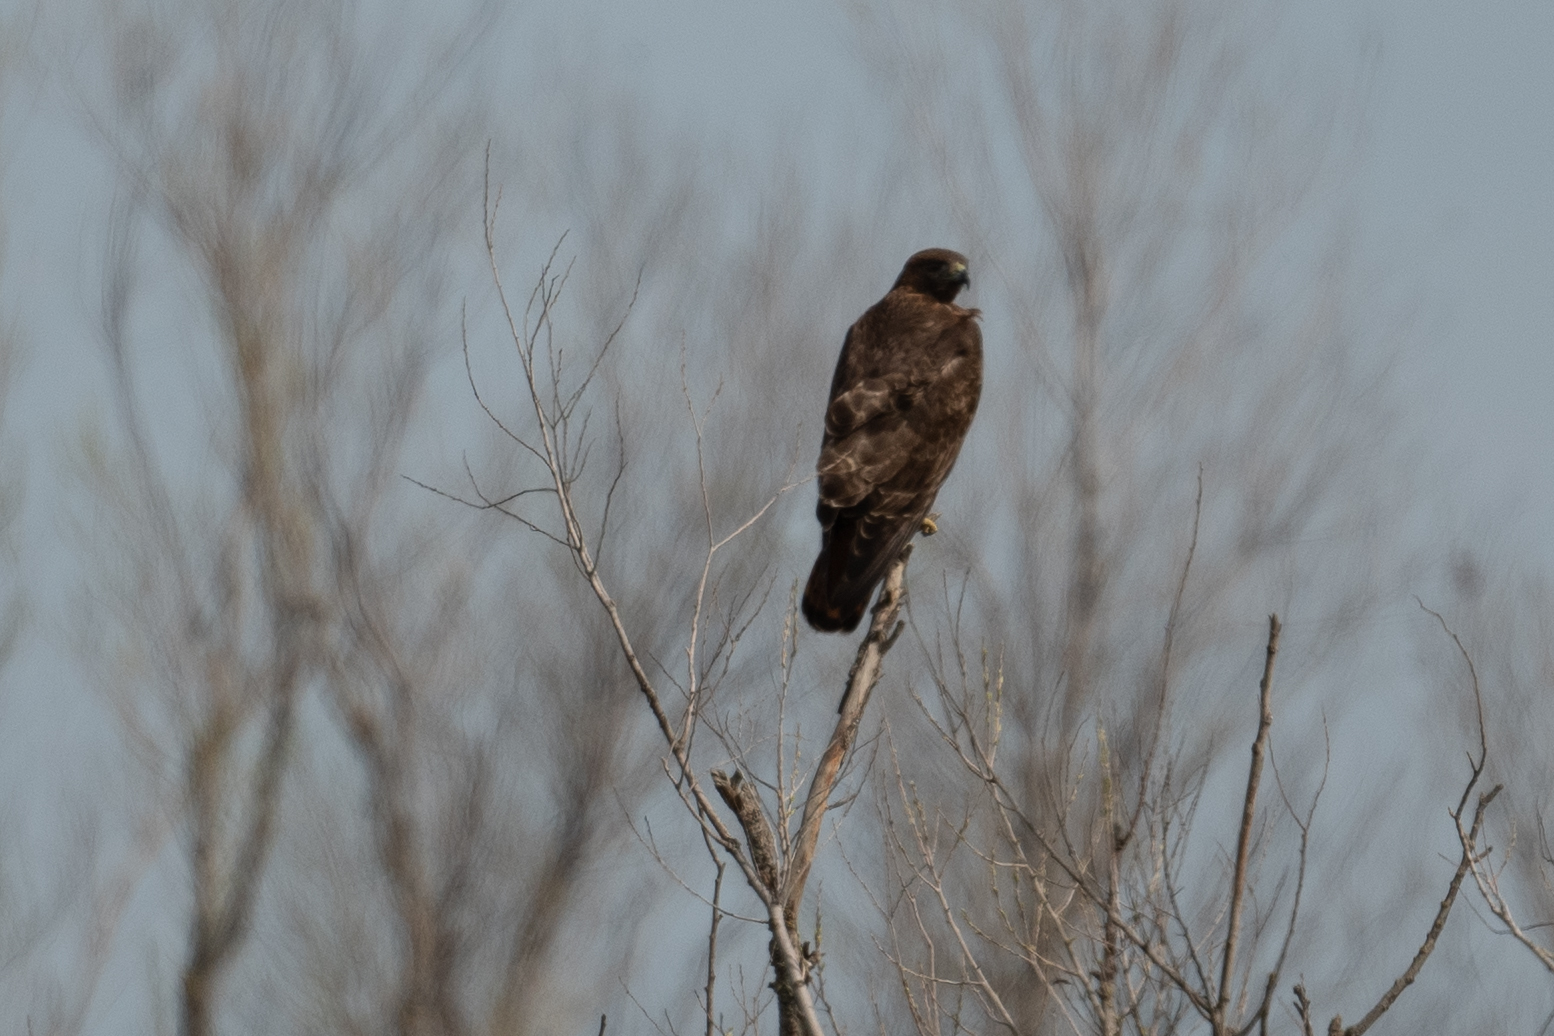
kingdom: Animalia
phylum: Chordata
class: Aves
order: Accipitriformes
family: Accipitridae
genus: Buteo
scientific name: Buteo jamaicensis
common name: Red-tailed hawk
